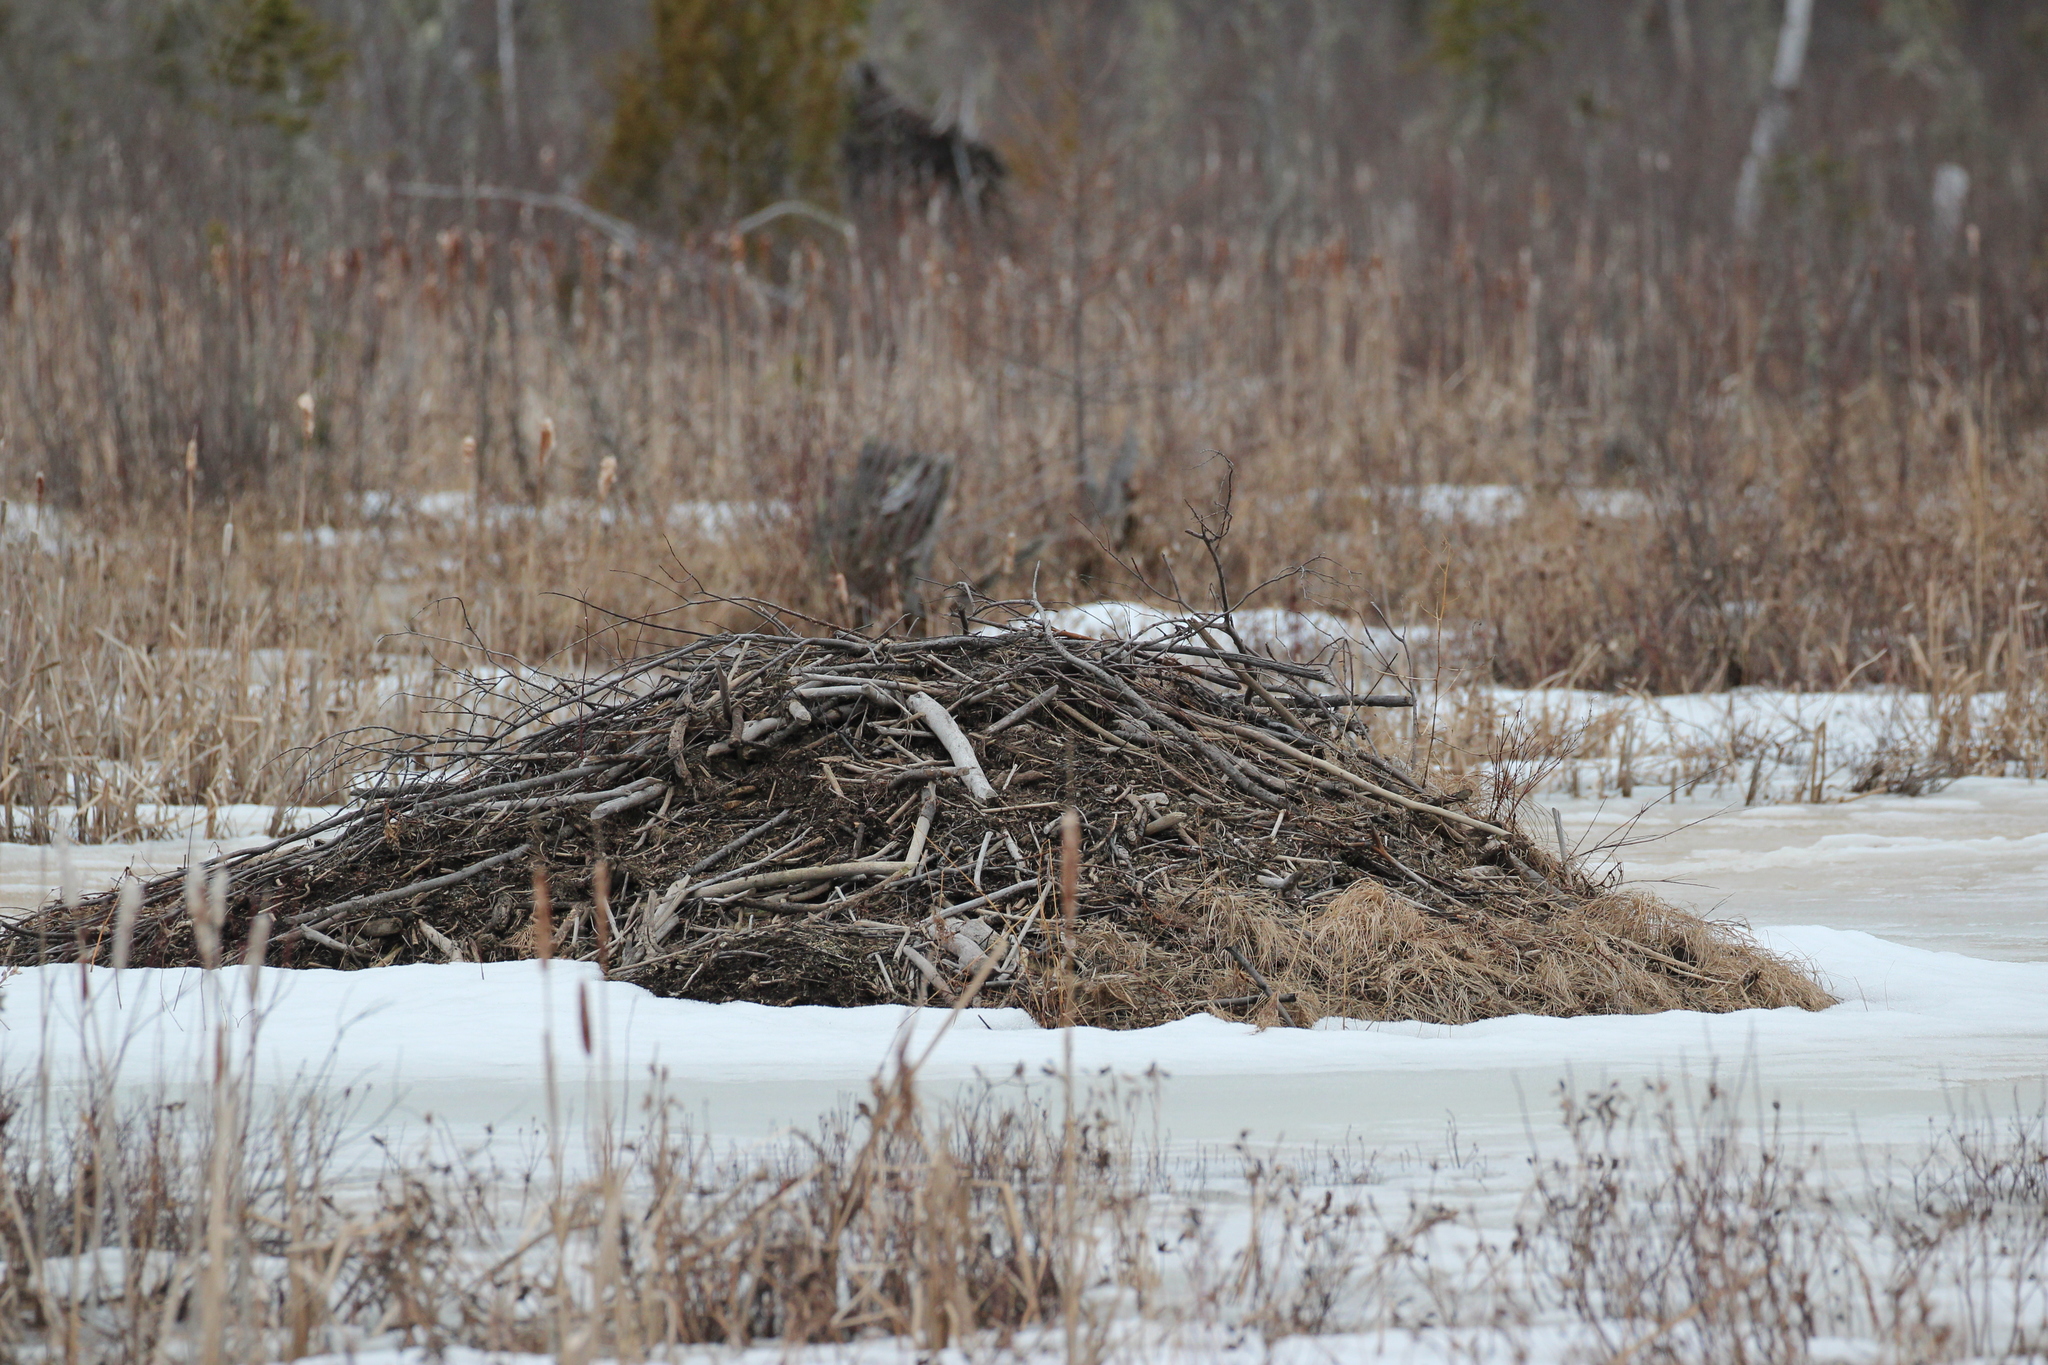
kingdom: Animalia
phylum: Chordata
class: Mammalia
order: Rodentia
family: Castoridae
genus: Castor
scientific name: Castor canadensis
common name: American beaver
